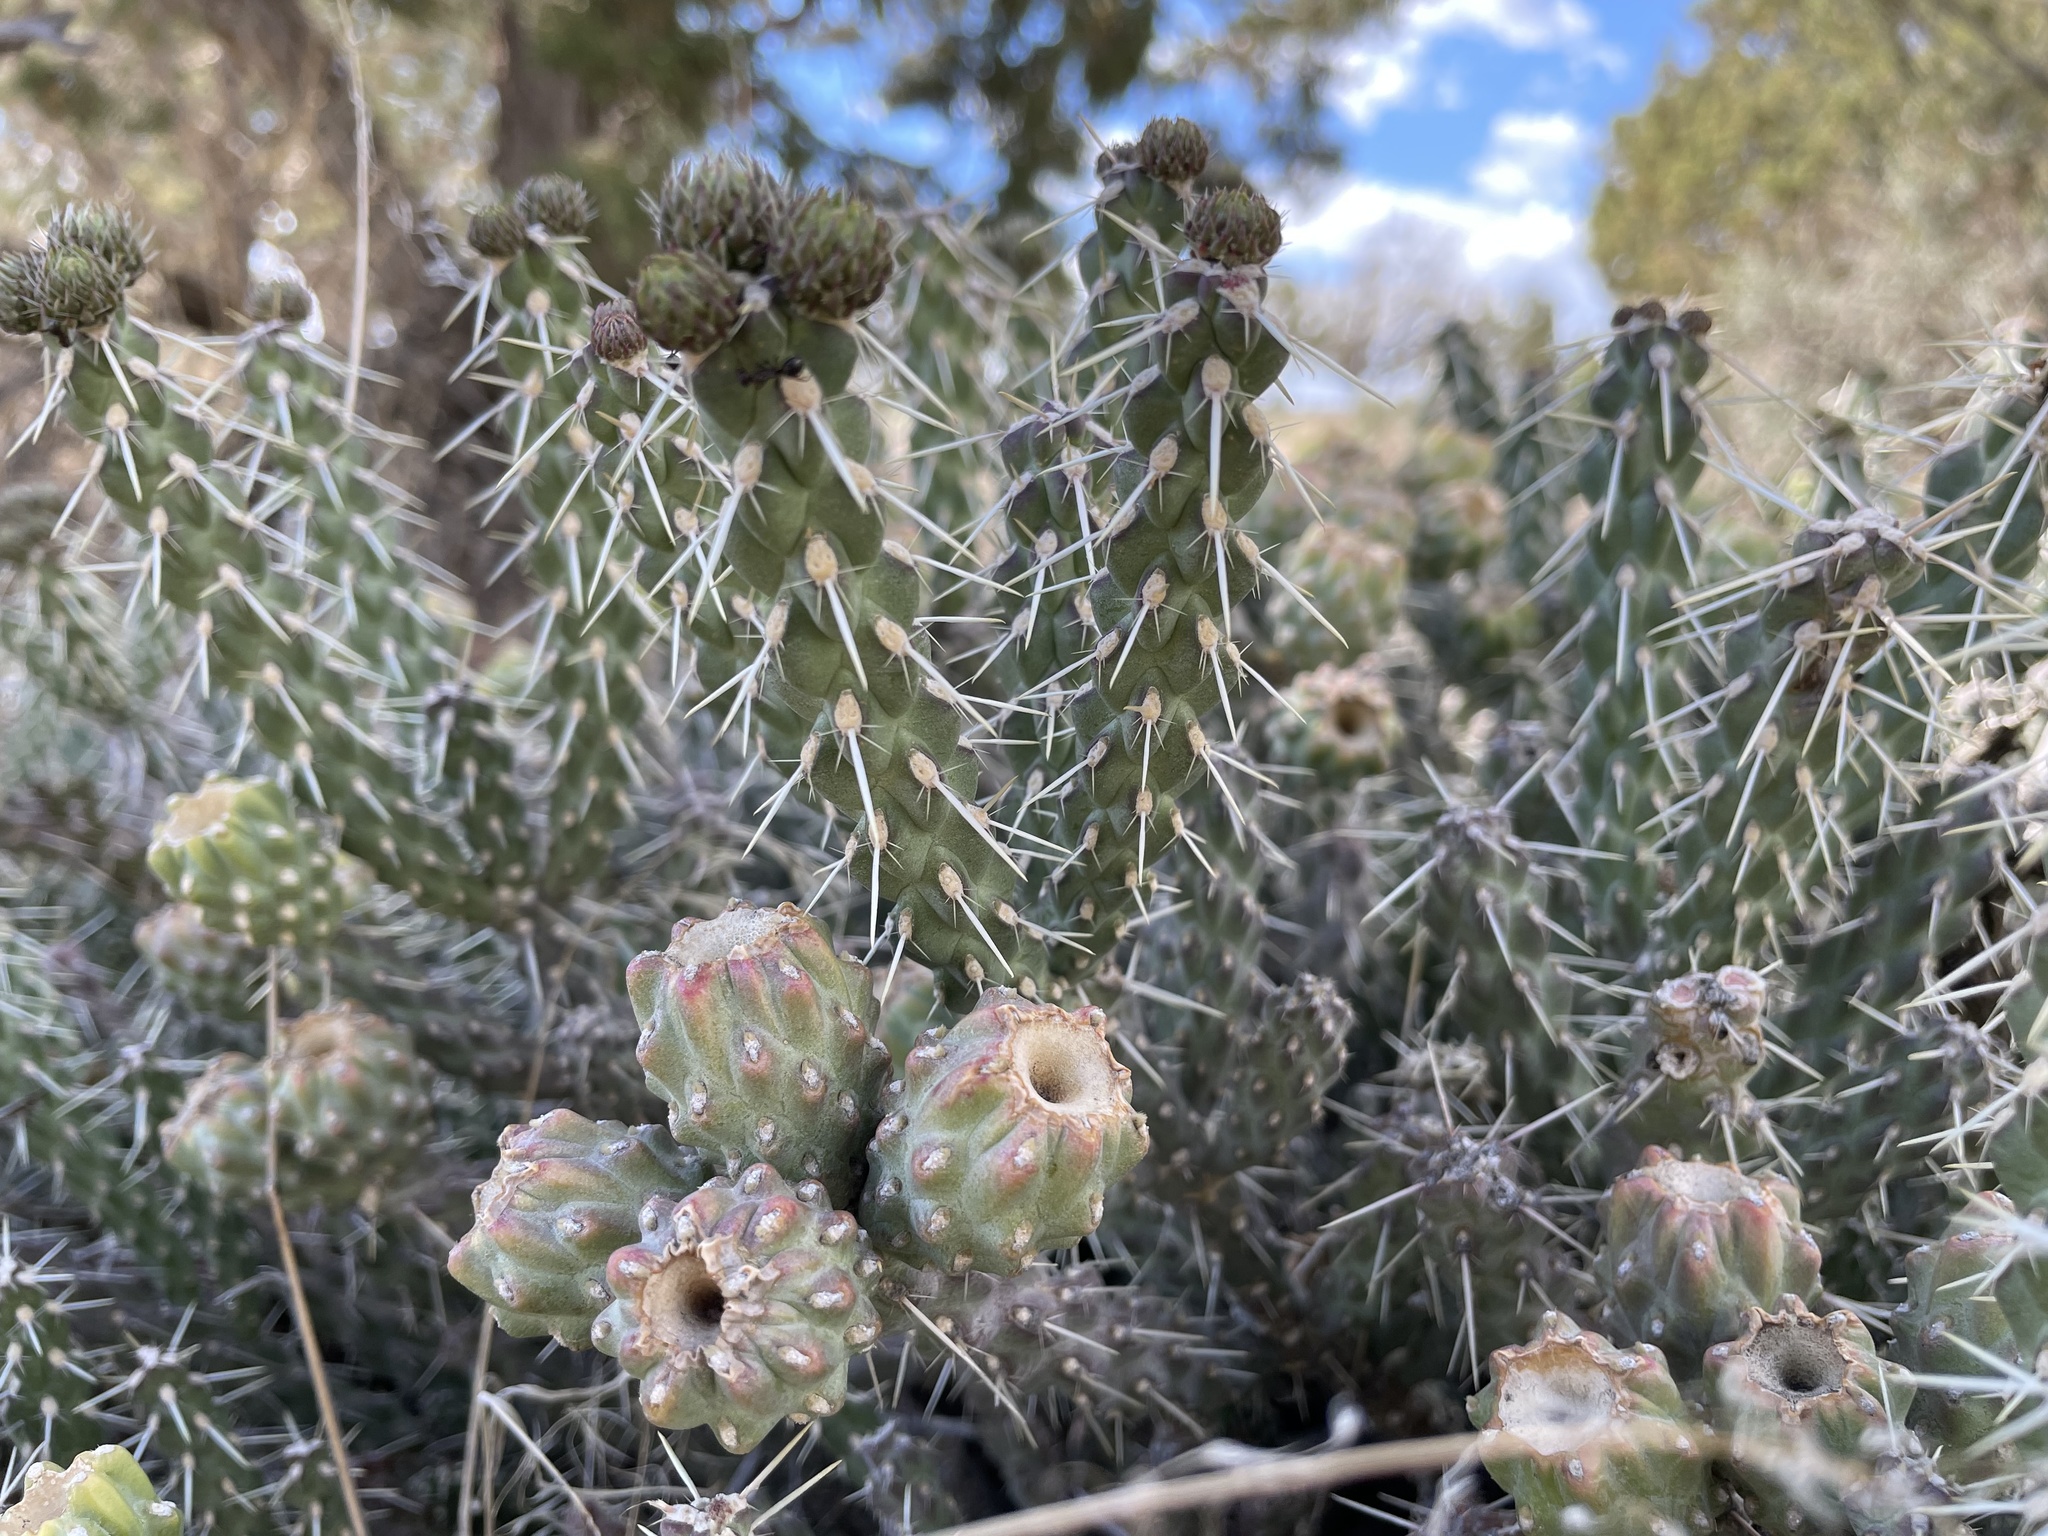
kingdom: Plantae
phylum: Tracheophyta
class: Magnoliopsida
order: Caryophyllales
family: Cactaceae
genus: Cylindropuntia
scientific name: Cylindropuntia whipplei
